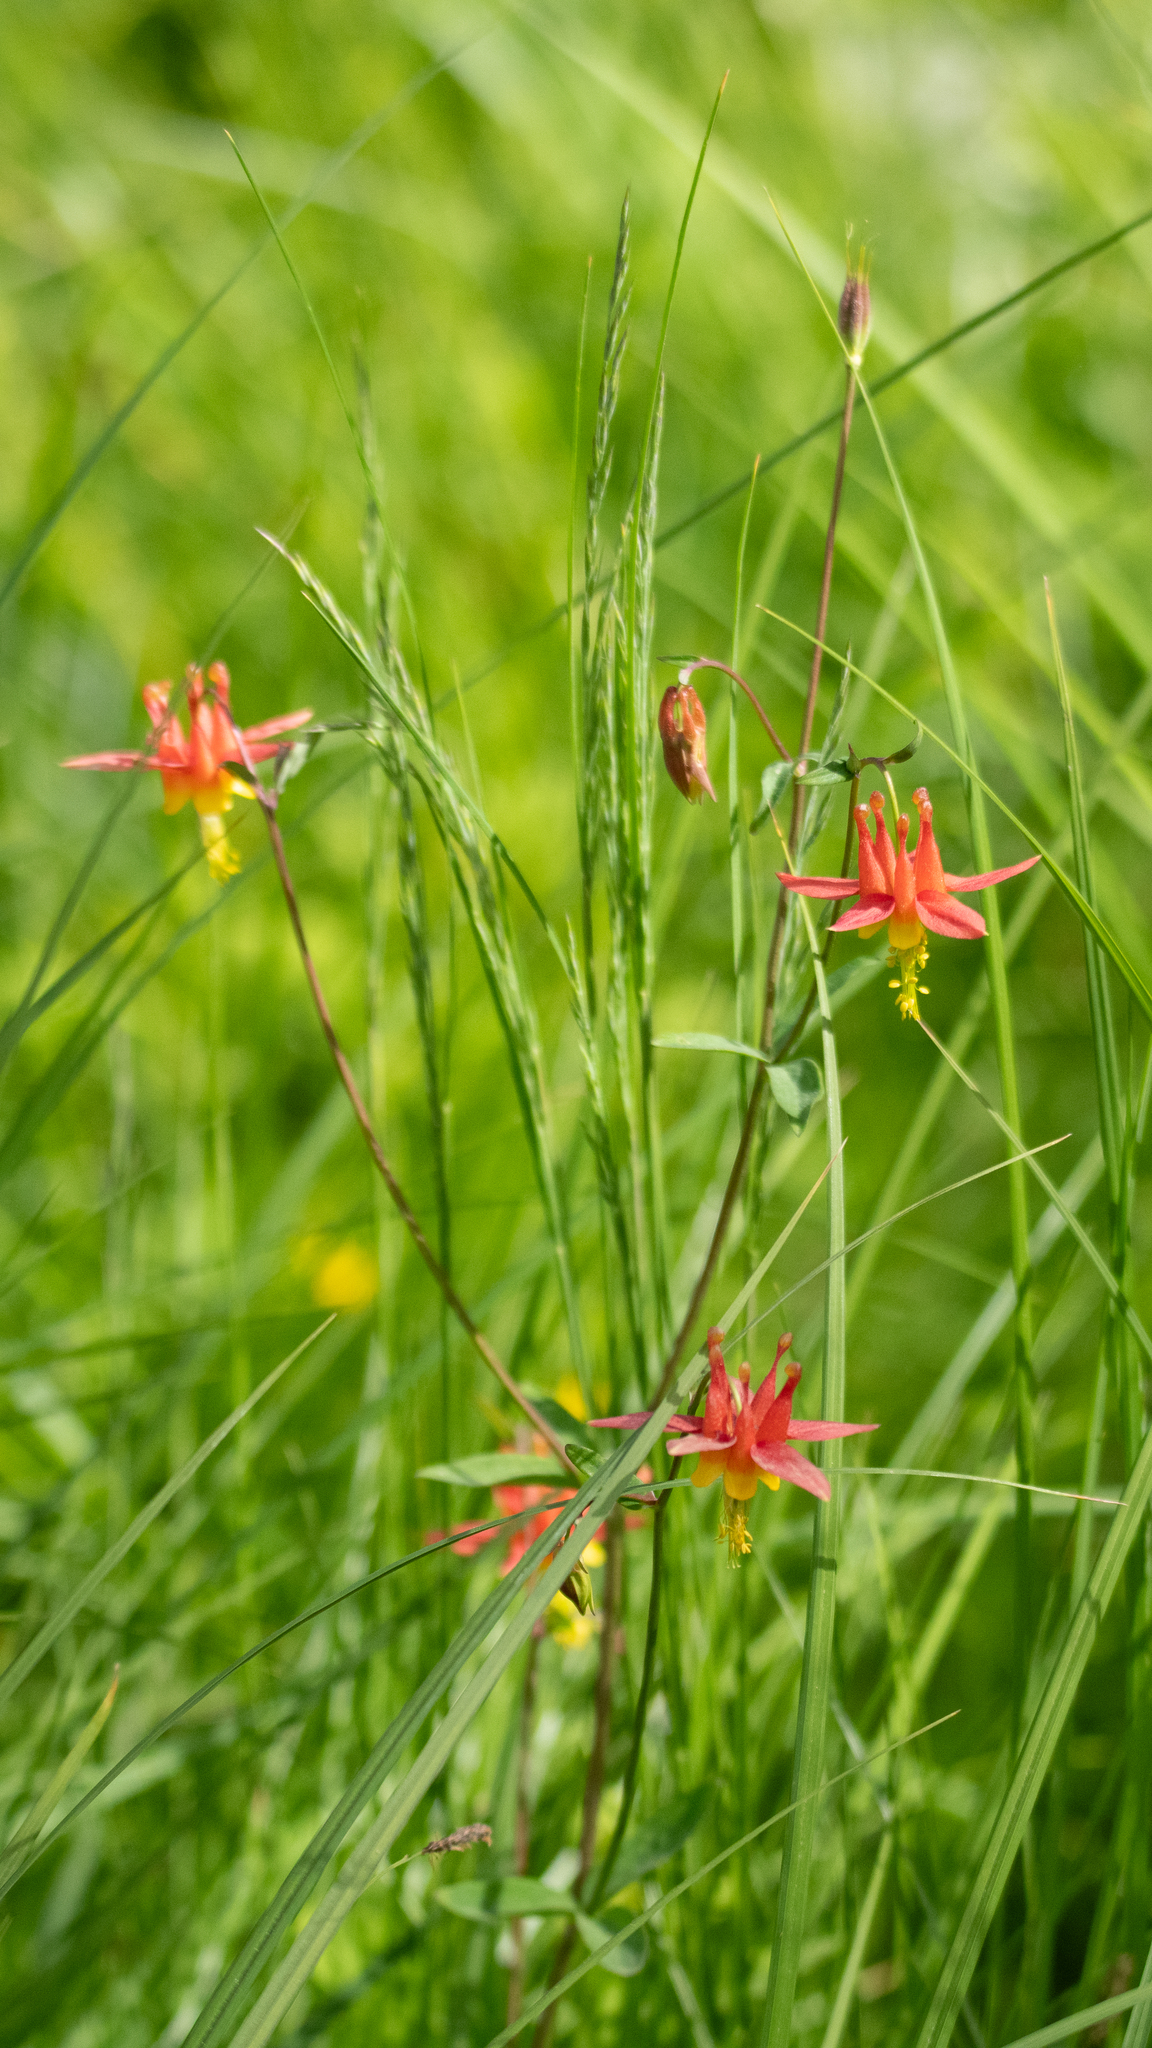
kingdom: Plantae
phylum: Tracheophyta
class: Magnoliopsida
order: Ranunculales
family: Ranunculaceae
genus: Aquilegia
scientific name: Aquilegia formosa
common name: Sitka columbine
